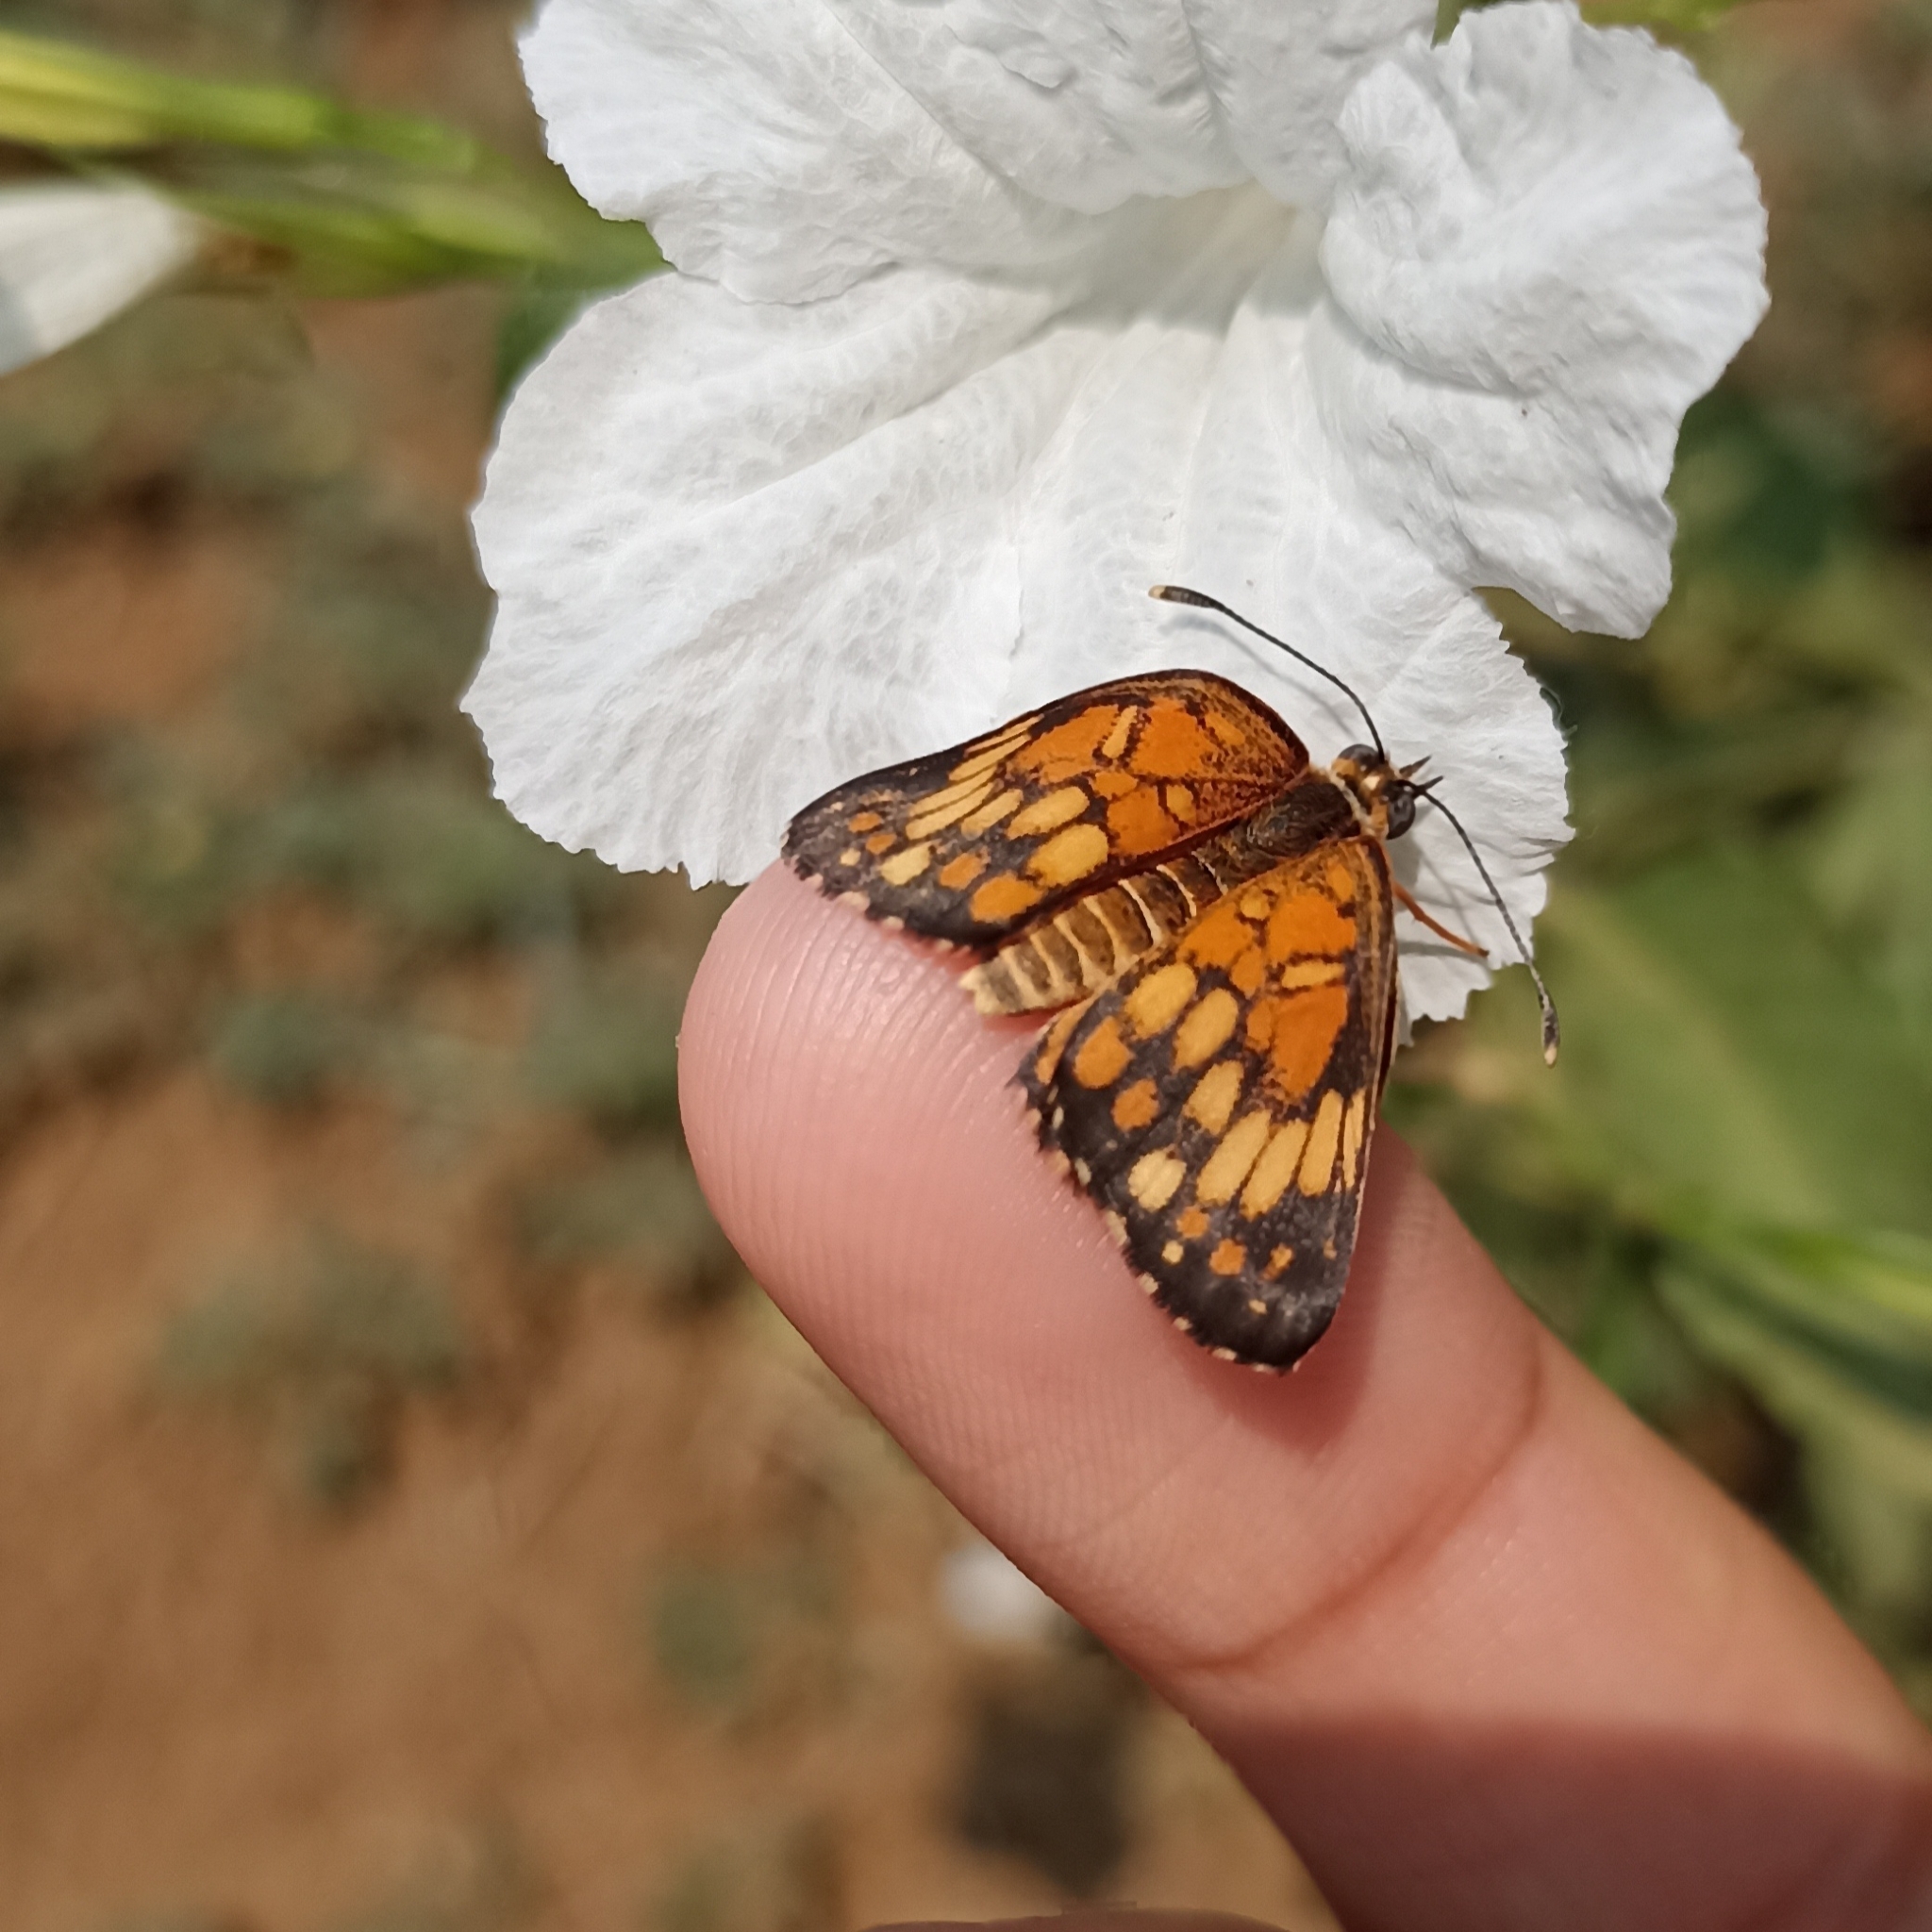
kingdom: Animalia
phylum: Arthropoda
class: Insecta
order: Lepidoptera
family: Nymphalidae
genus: Thessalia
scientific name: Thessalia theona
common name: Nymphalid moth
